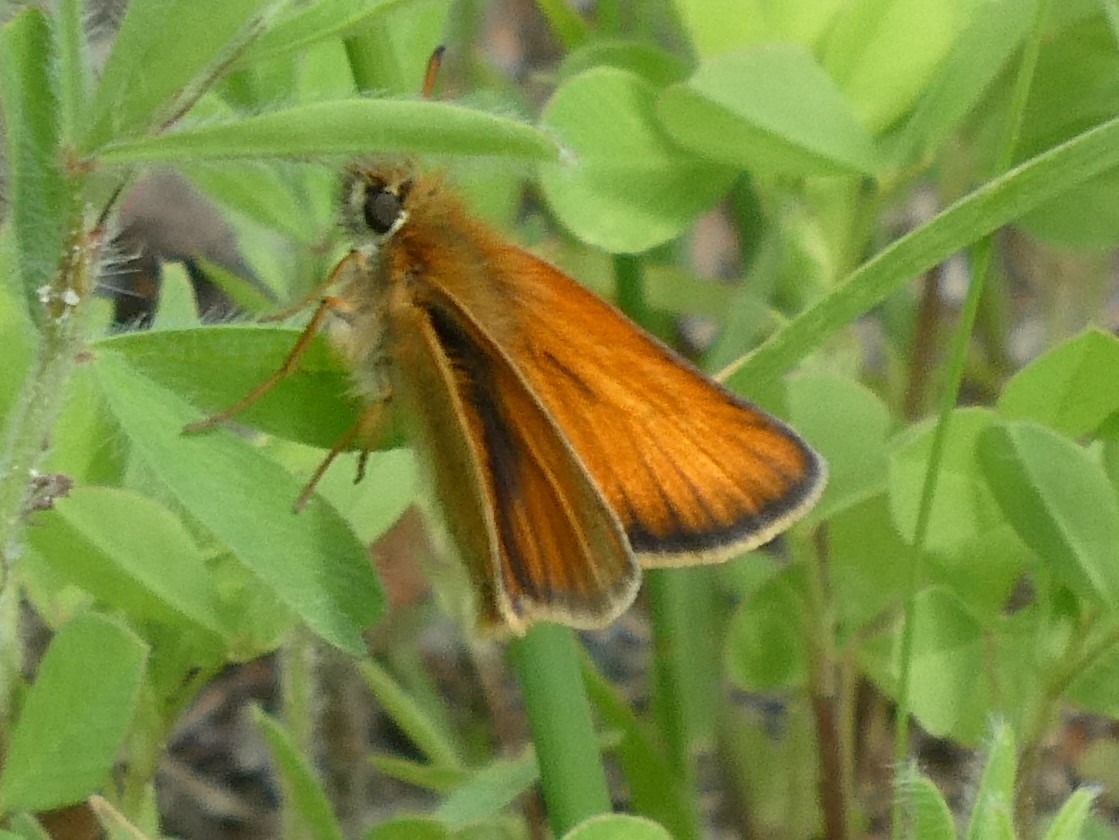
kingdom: Animalia
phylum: Arthropoda
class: Insecta
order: Lepidoptera
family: Hesperiidae
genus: Thymelicus
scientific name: Thymelicus lineola
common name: Essex skipper
